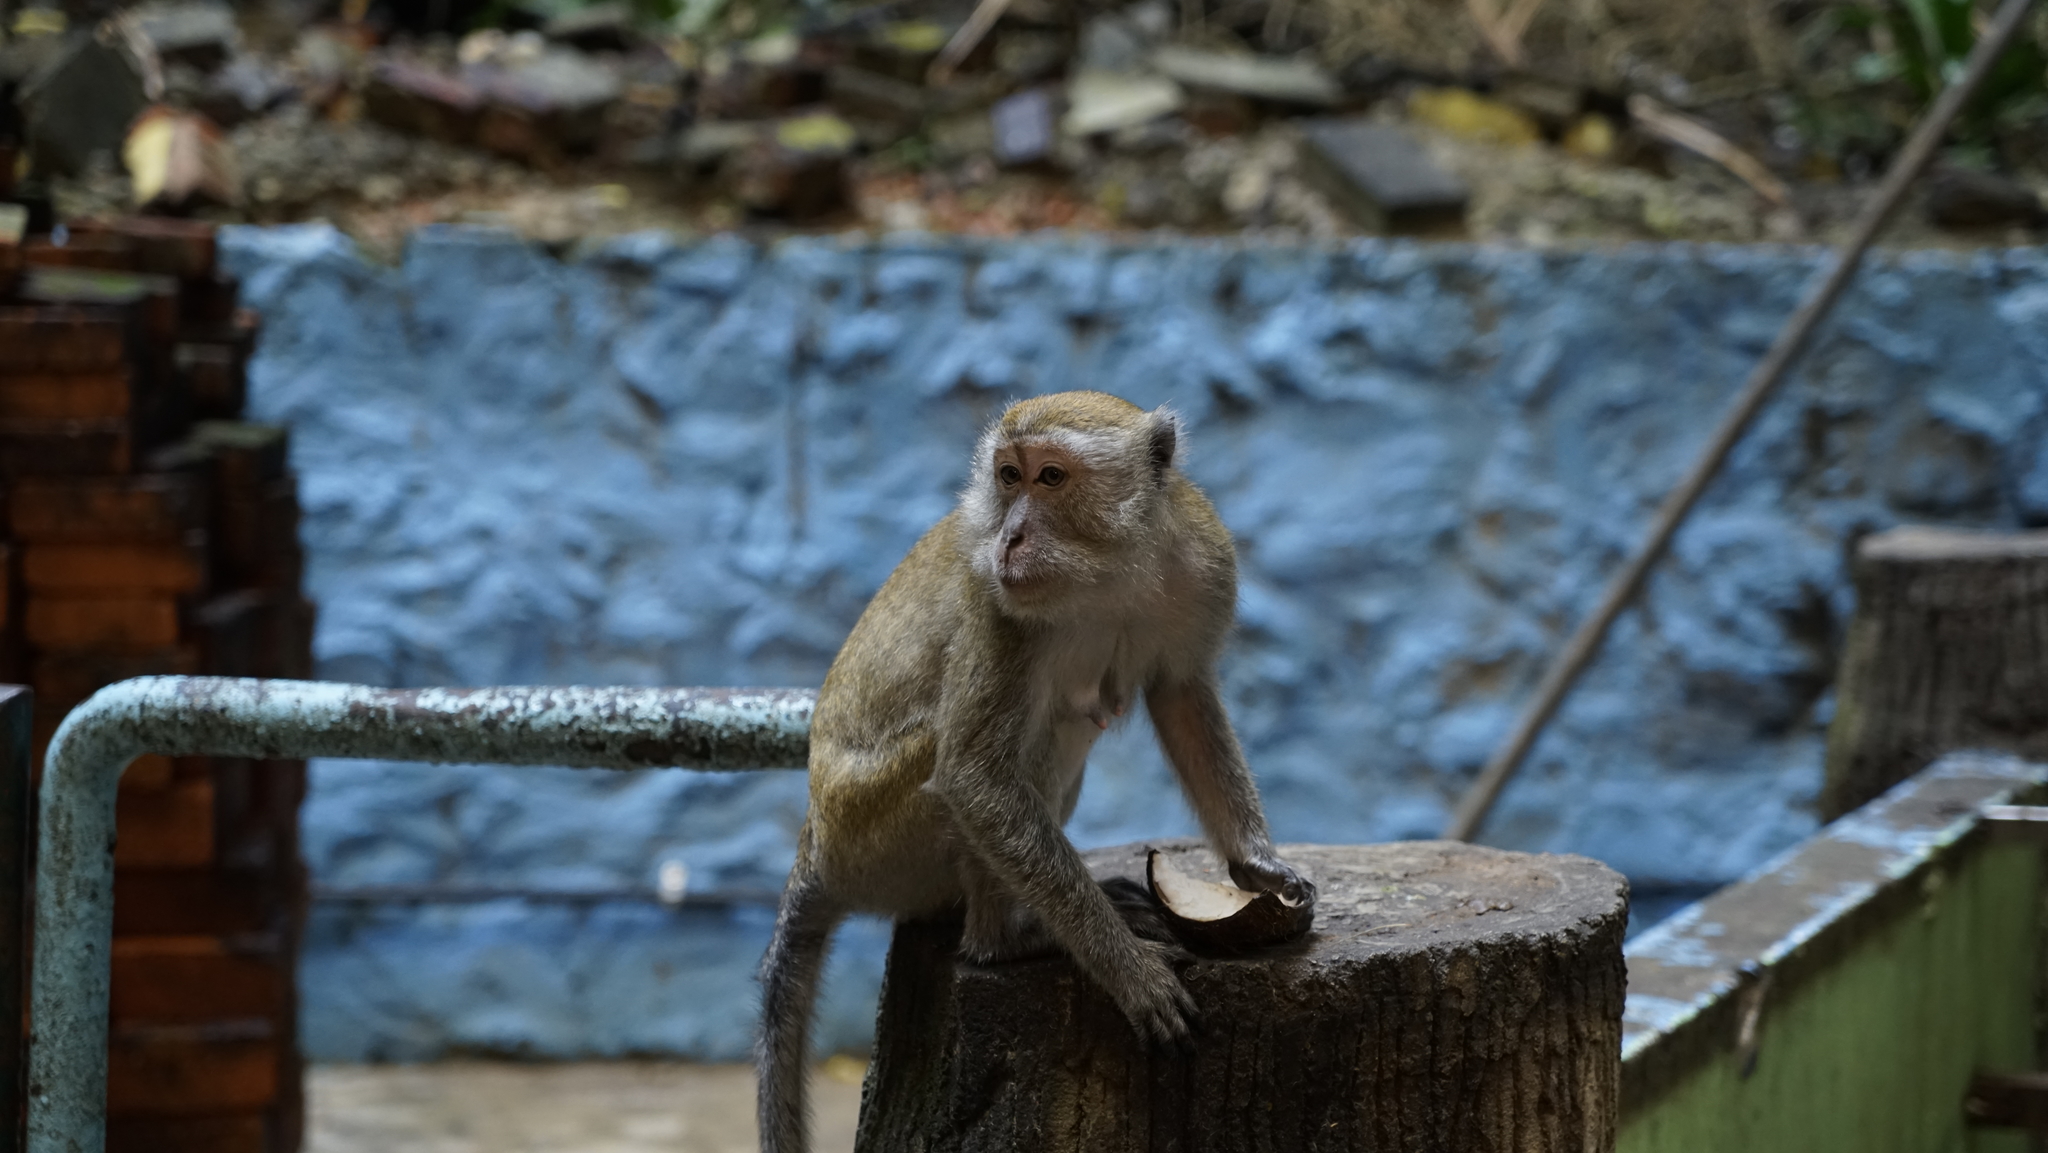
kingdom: Animalia
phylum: Chordata
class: Mammalia
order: Primates
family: Cercopithecidae
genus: Macaca
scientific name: Macaca fascicularis
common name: Crab-eating macaque
